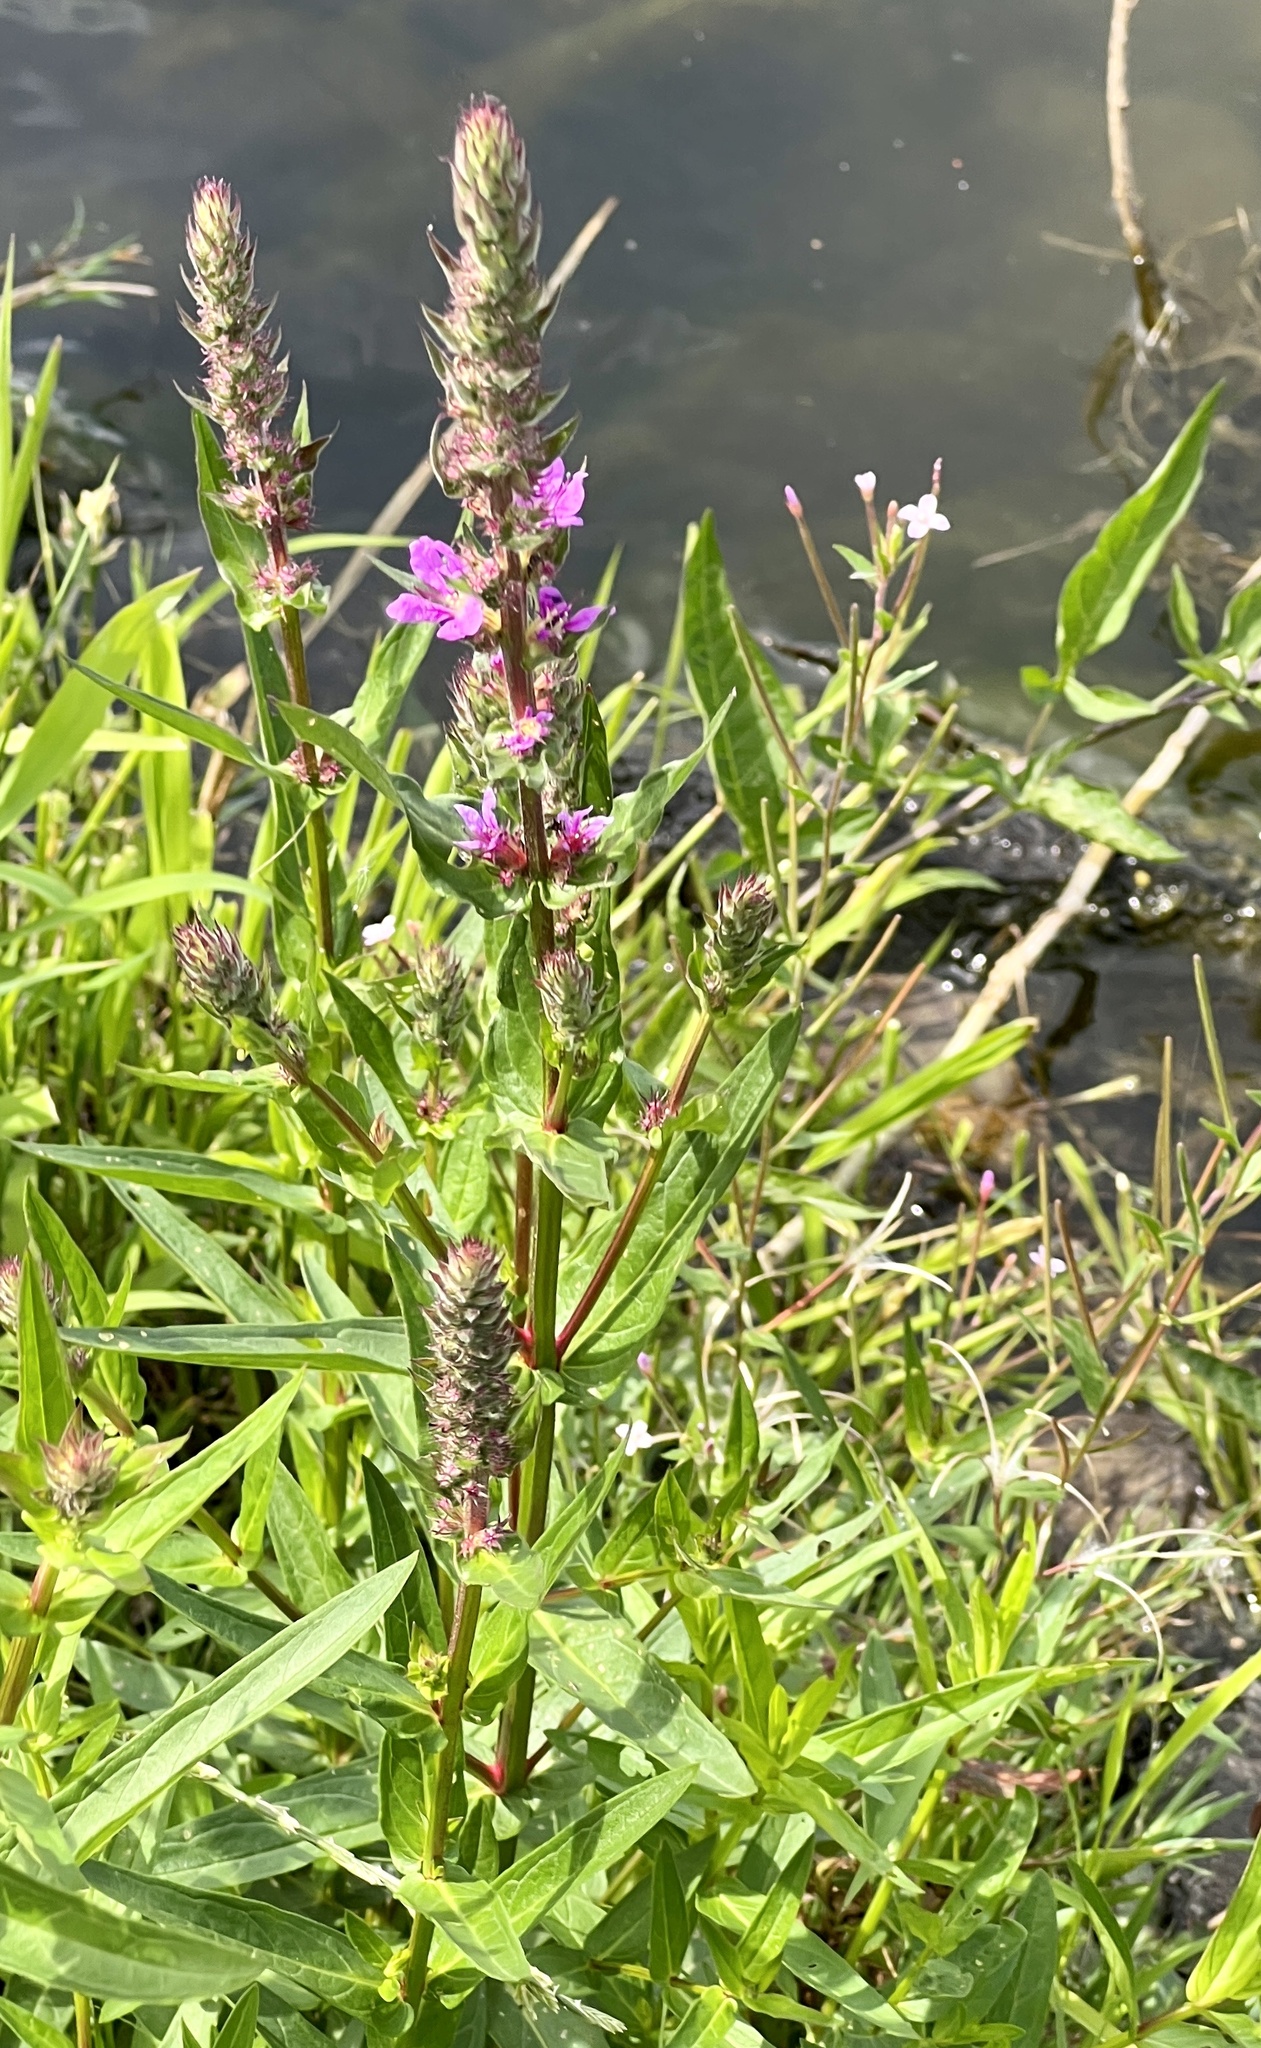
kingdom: Plantae
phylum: Tracheophyta
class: Magnoliopsida
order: Myrtales
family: Lythraceae
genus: Lythrum
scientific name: Lythrum salicaria
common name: Purple loosestrife
